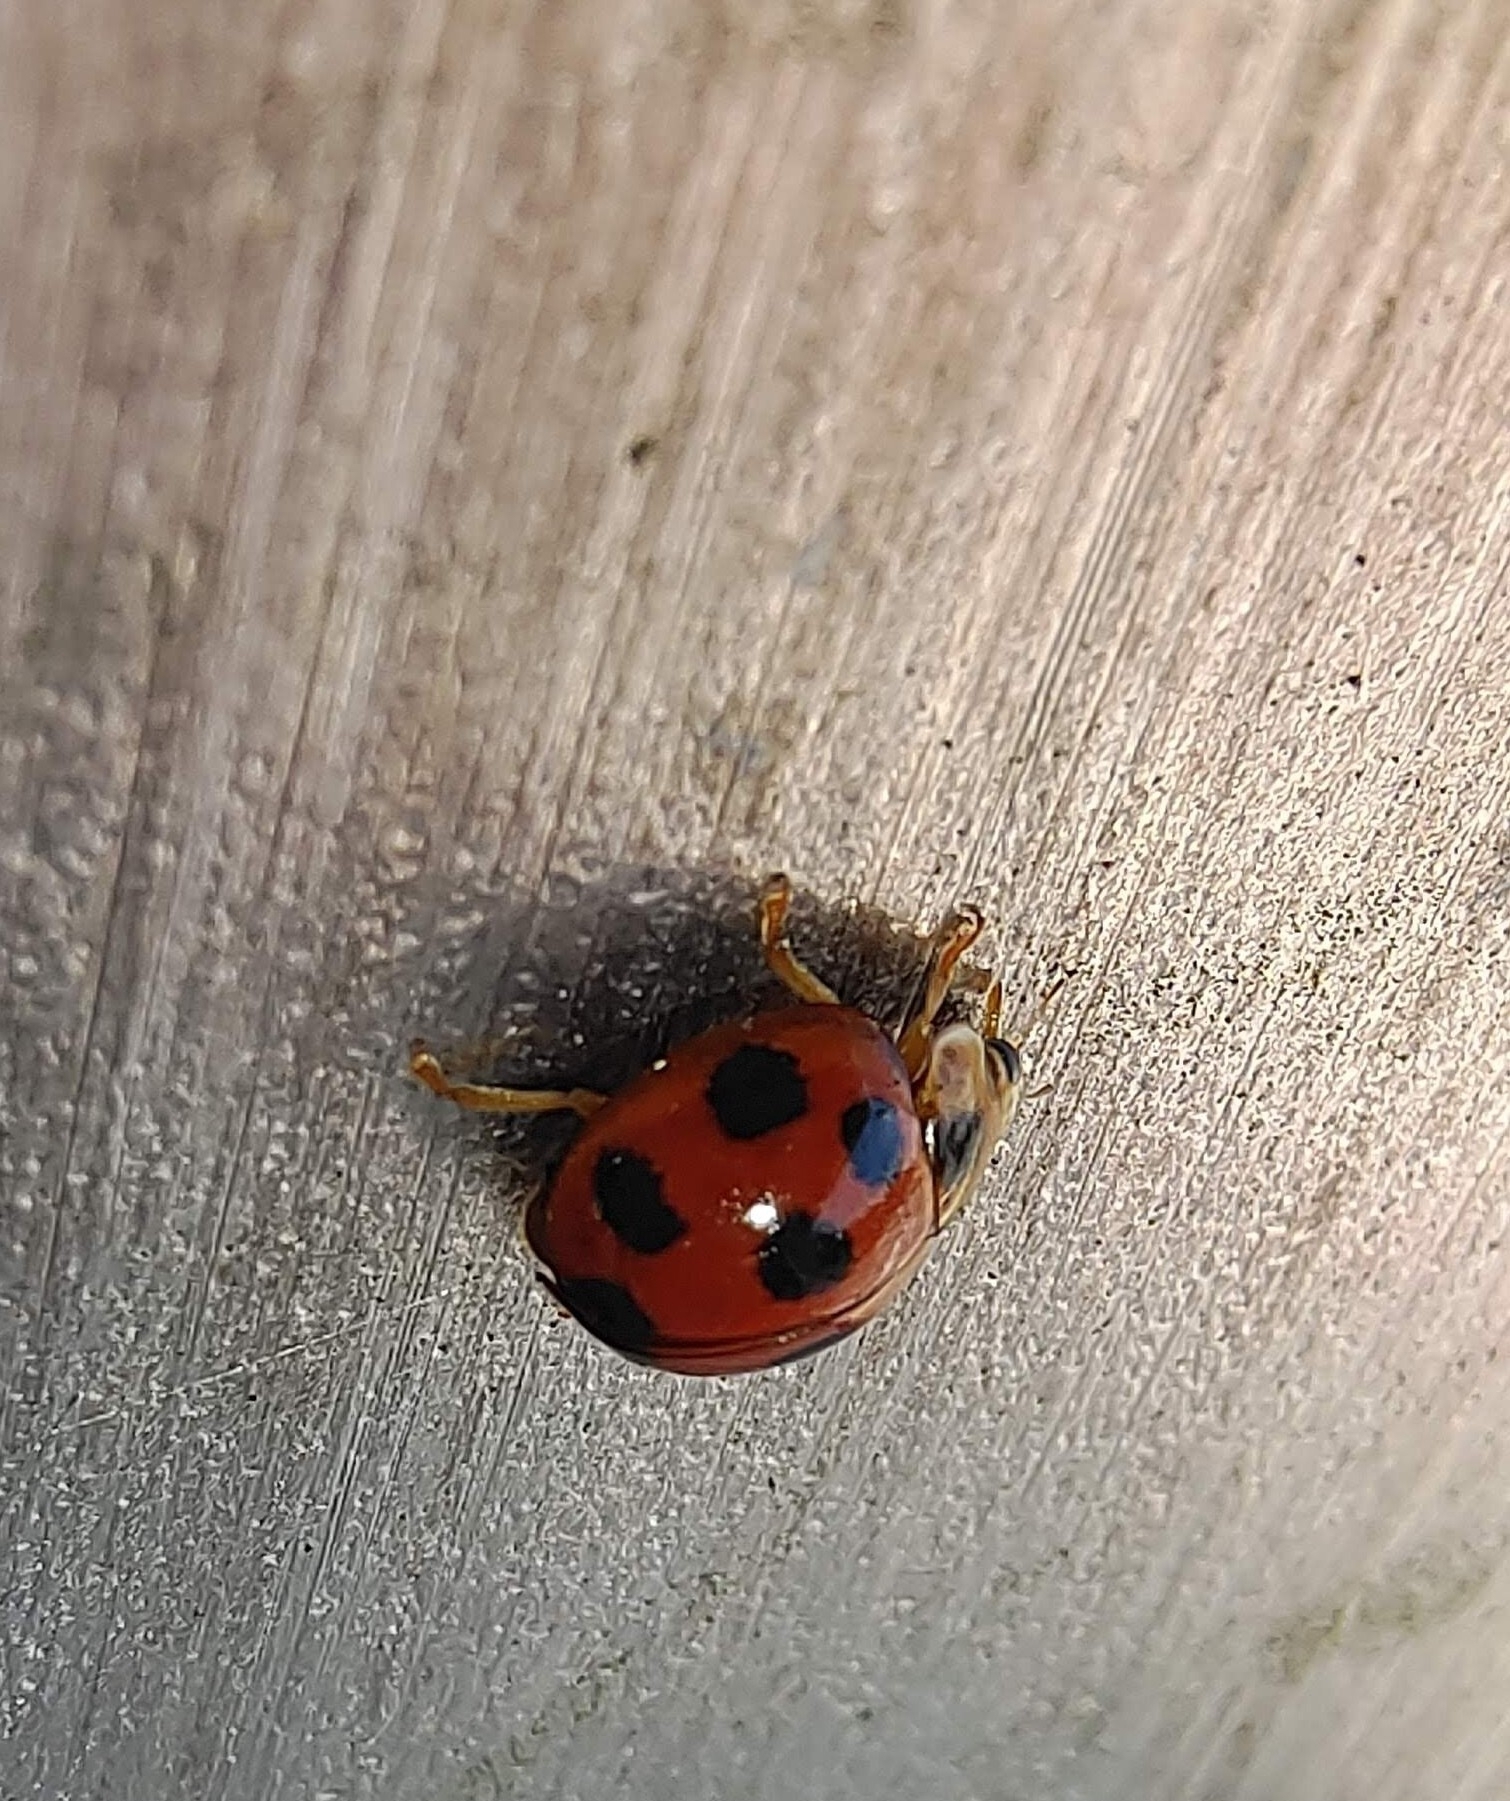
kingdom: Animalia
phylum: Arthropoda
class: Insecta
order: Coleoptera
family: Coccinellidae
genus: Coelophora
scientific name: Coelophora inaequalis
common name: Common australian lady beetle
